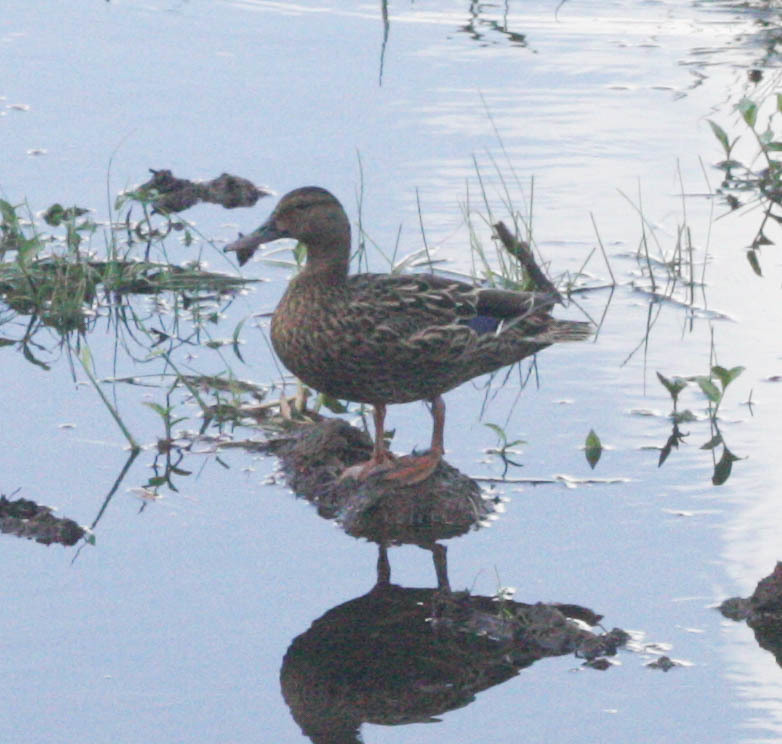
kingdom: Animalia
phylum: Chordata
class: Aves
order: Anseriformes
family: Anatidae
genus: Anas
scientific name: Anas wyvilliana
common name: Hawaiian duck
